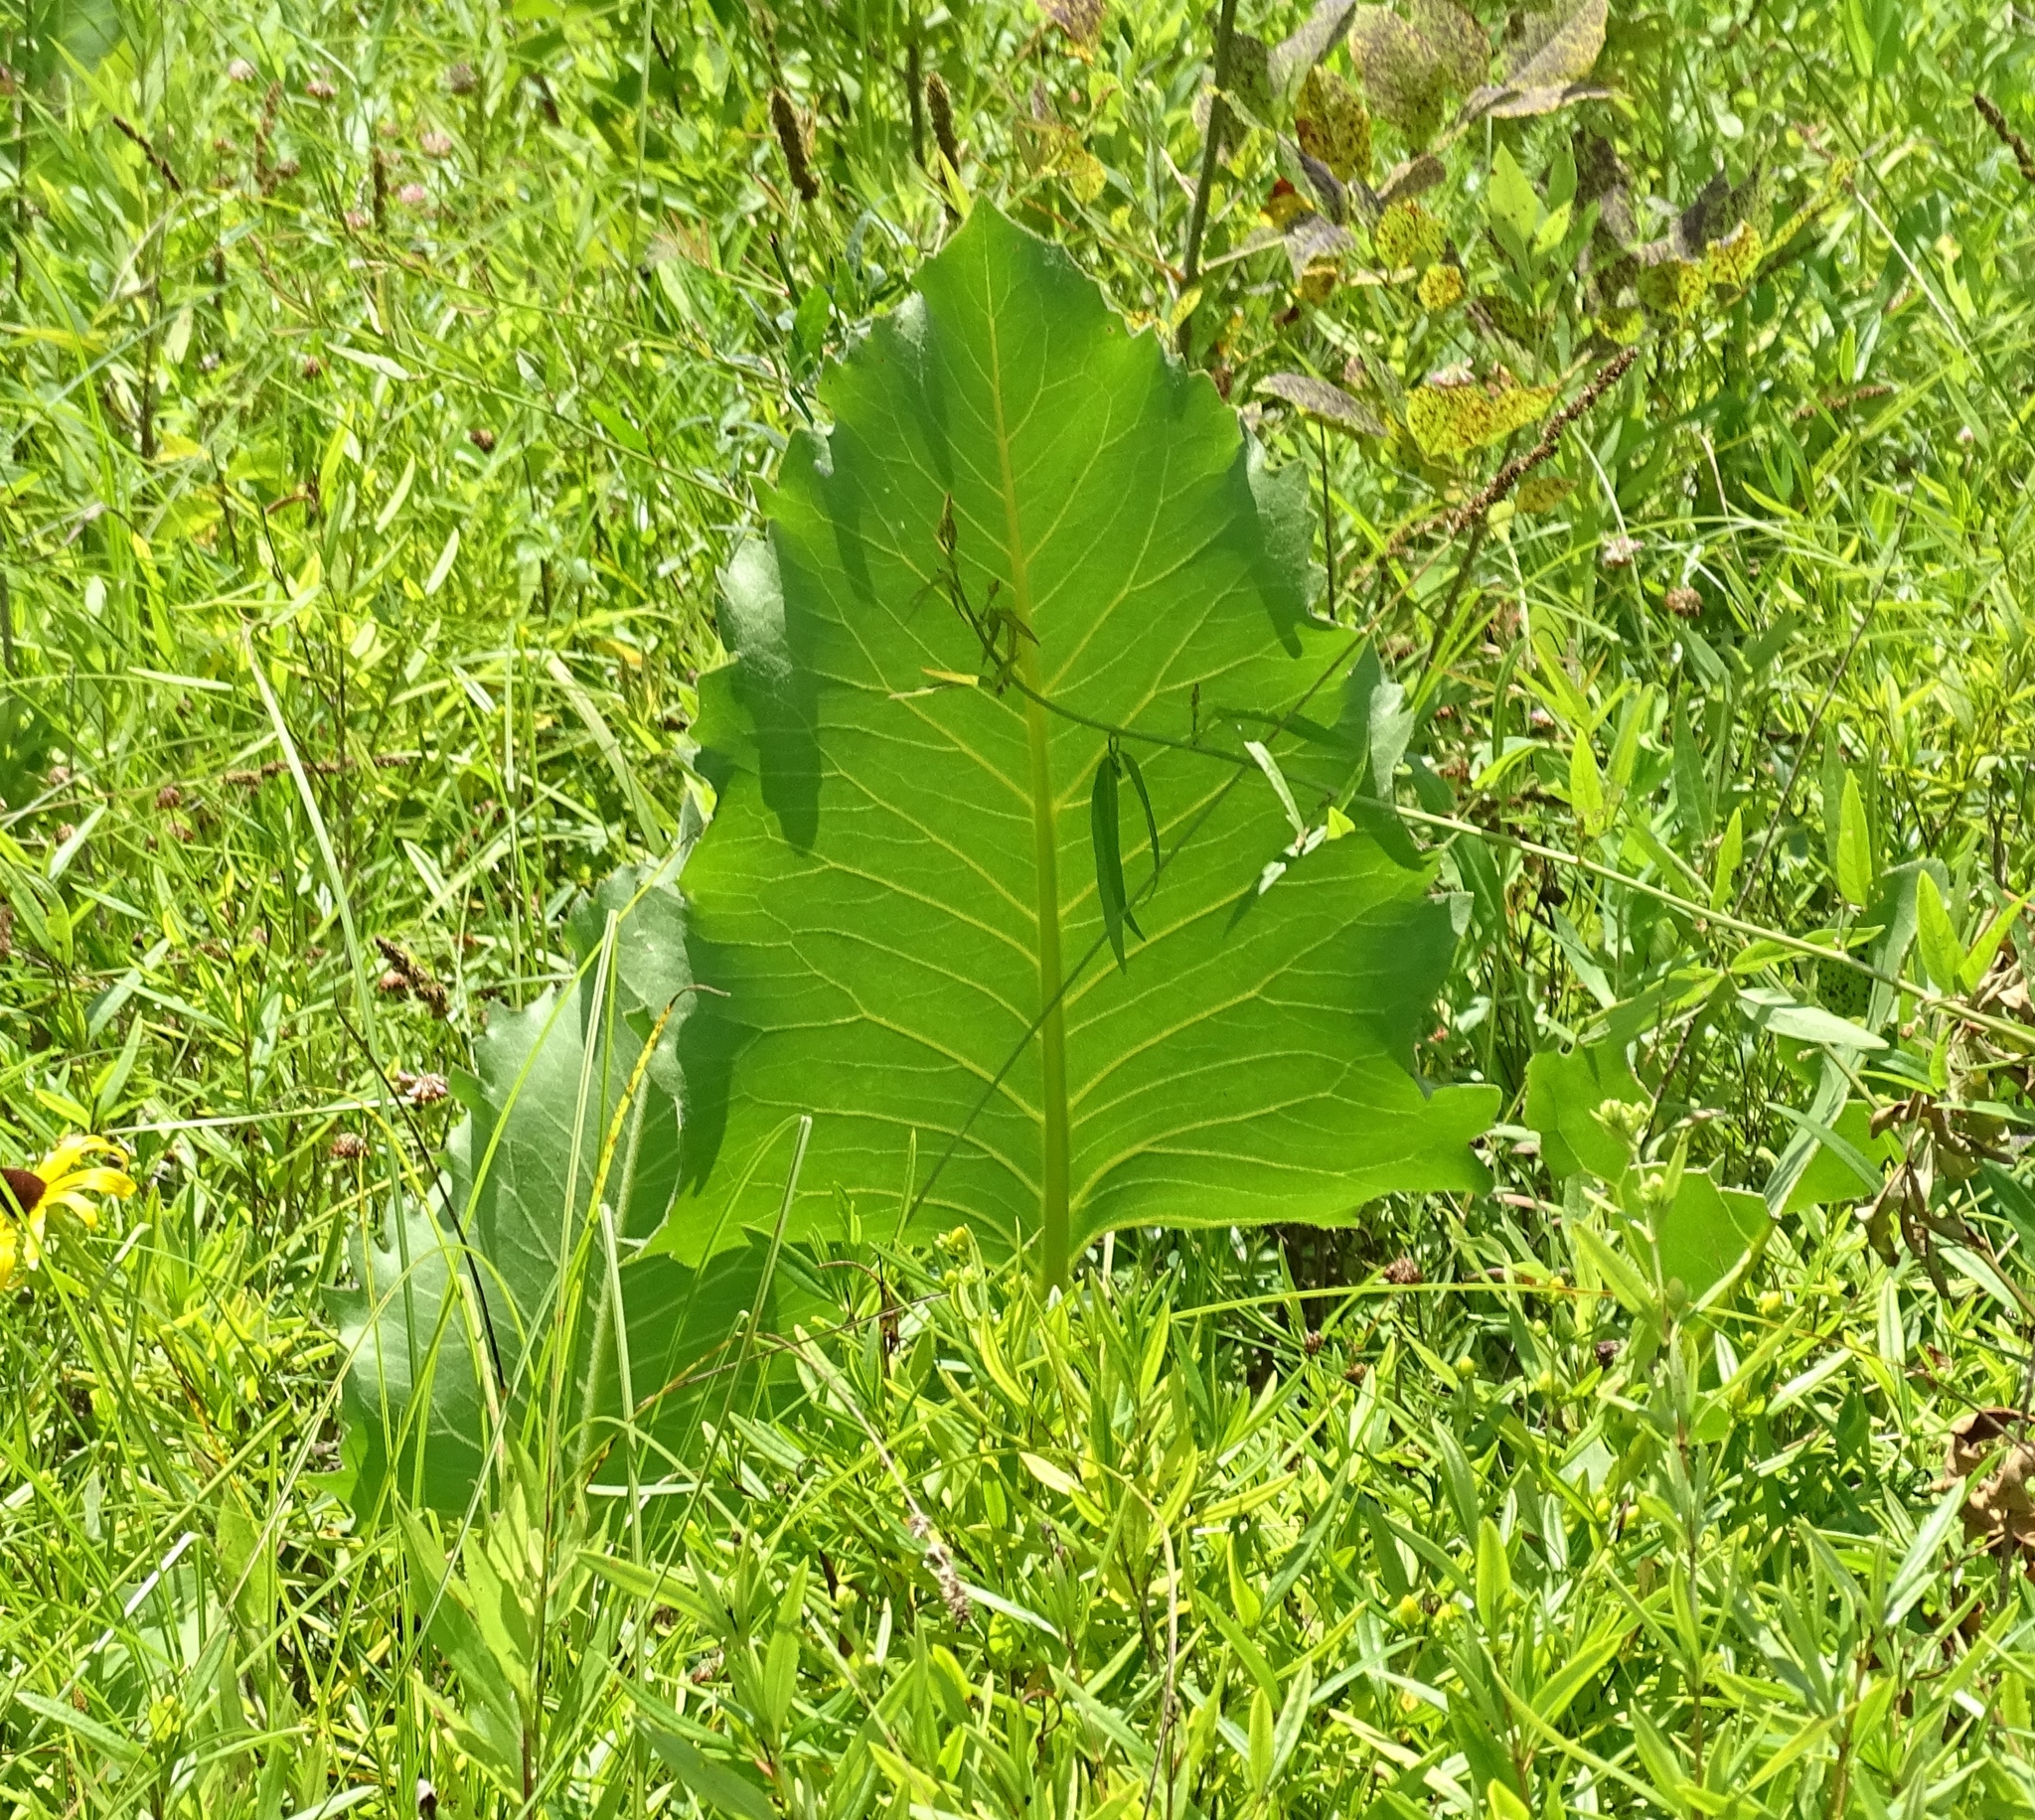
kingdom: Plantae
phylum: Tracheophyta
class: Magnoliopsida
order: Asterales
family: Asteraceae
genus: Silphium
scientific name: Silphium terebinthinaceum
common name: Basal-leaf rosinweed
